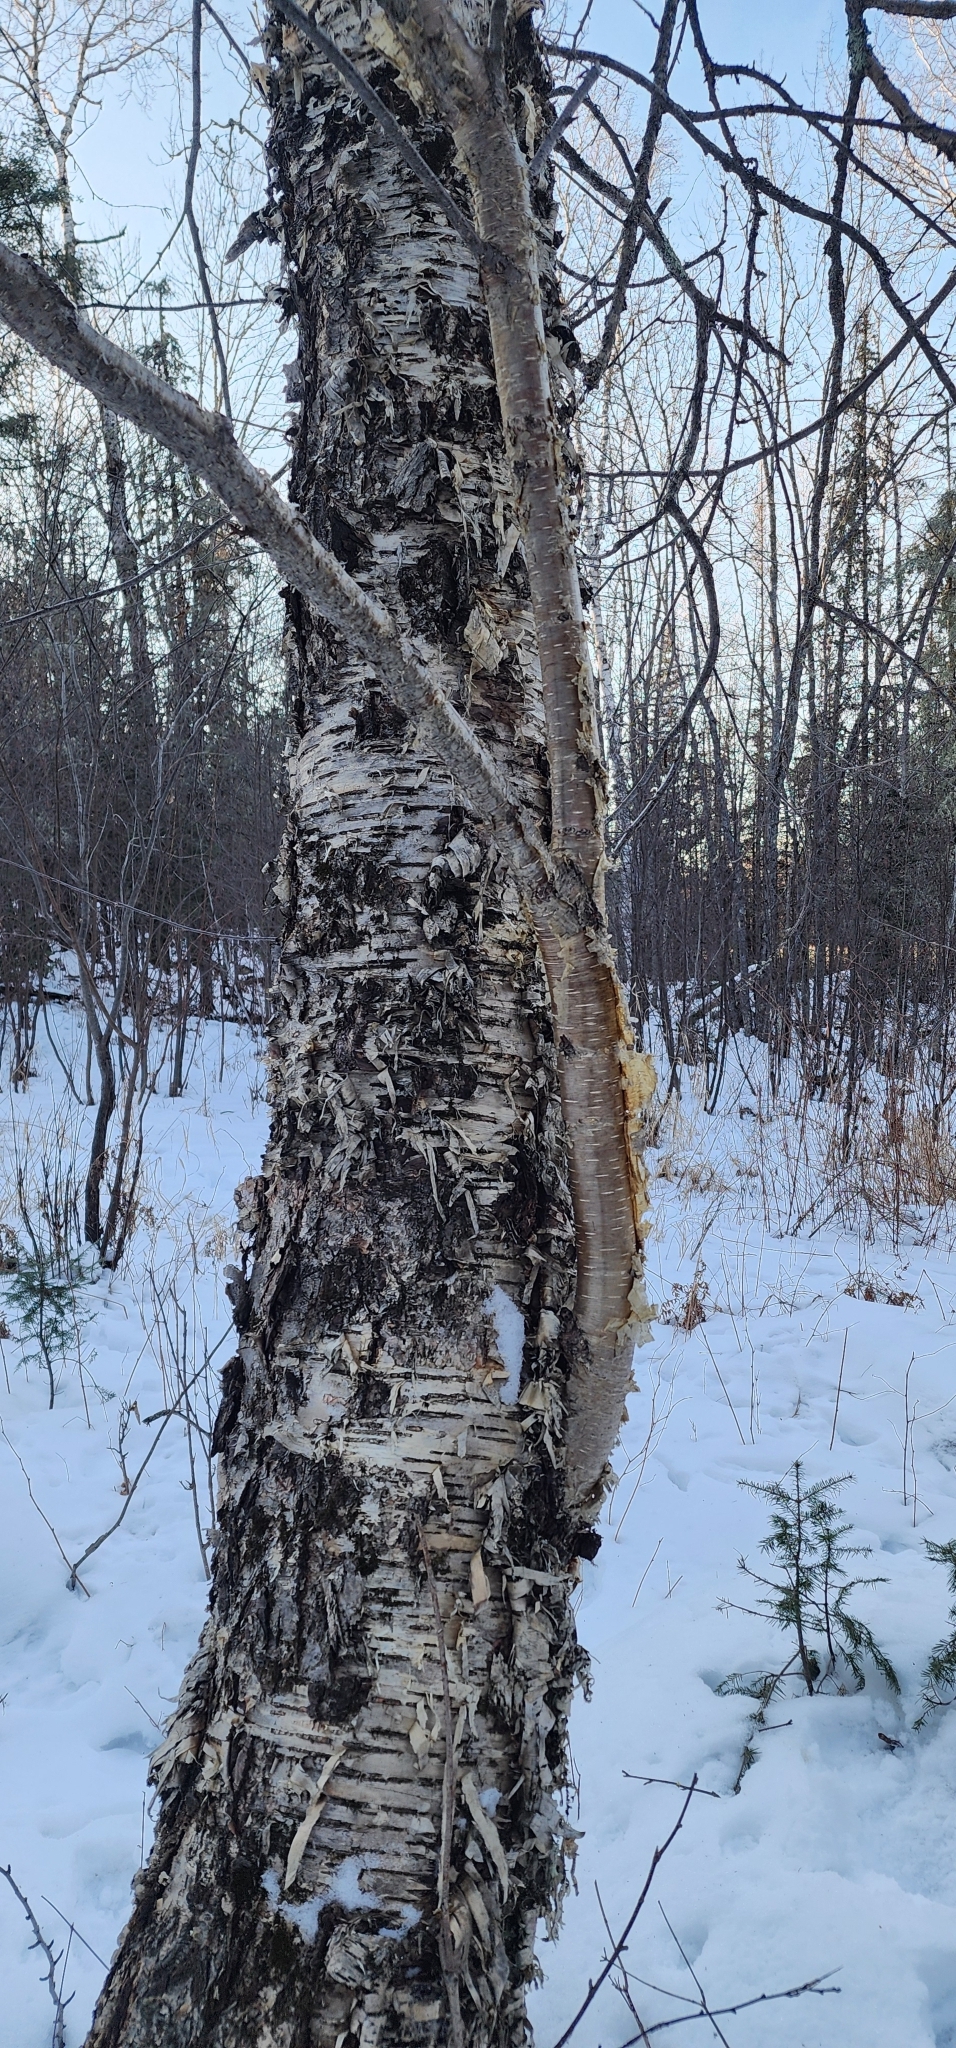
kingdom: Plantae
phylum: Tracheophyta
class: Magnoliopsida
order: Fagales
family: Betulaceae
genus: Betula
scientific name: Betula alleghaniensis
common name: Yellow birch
